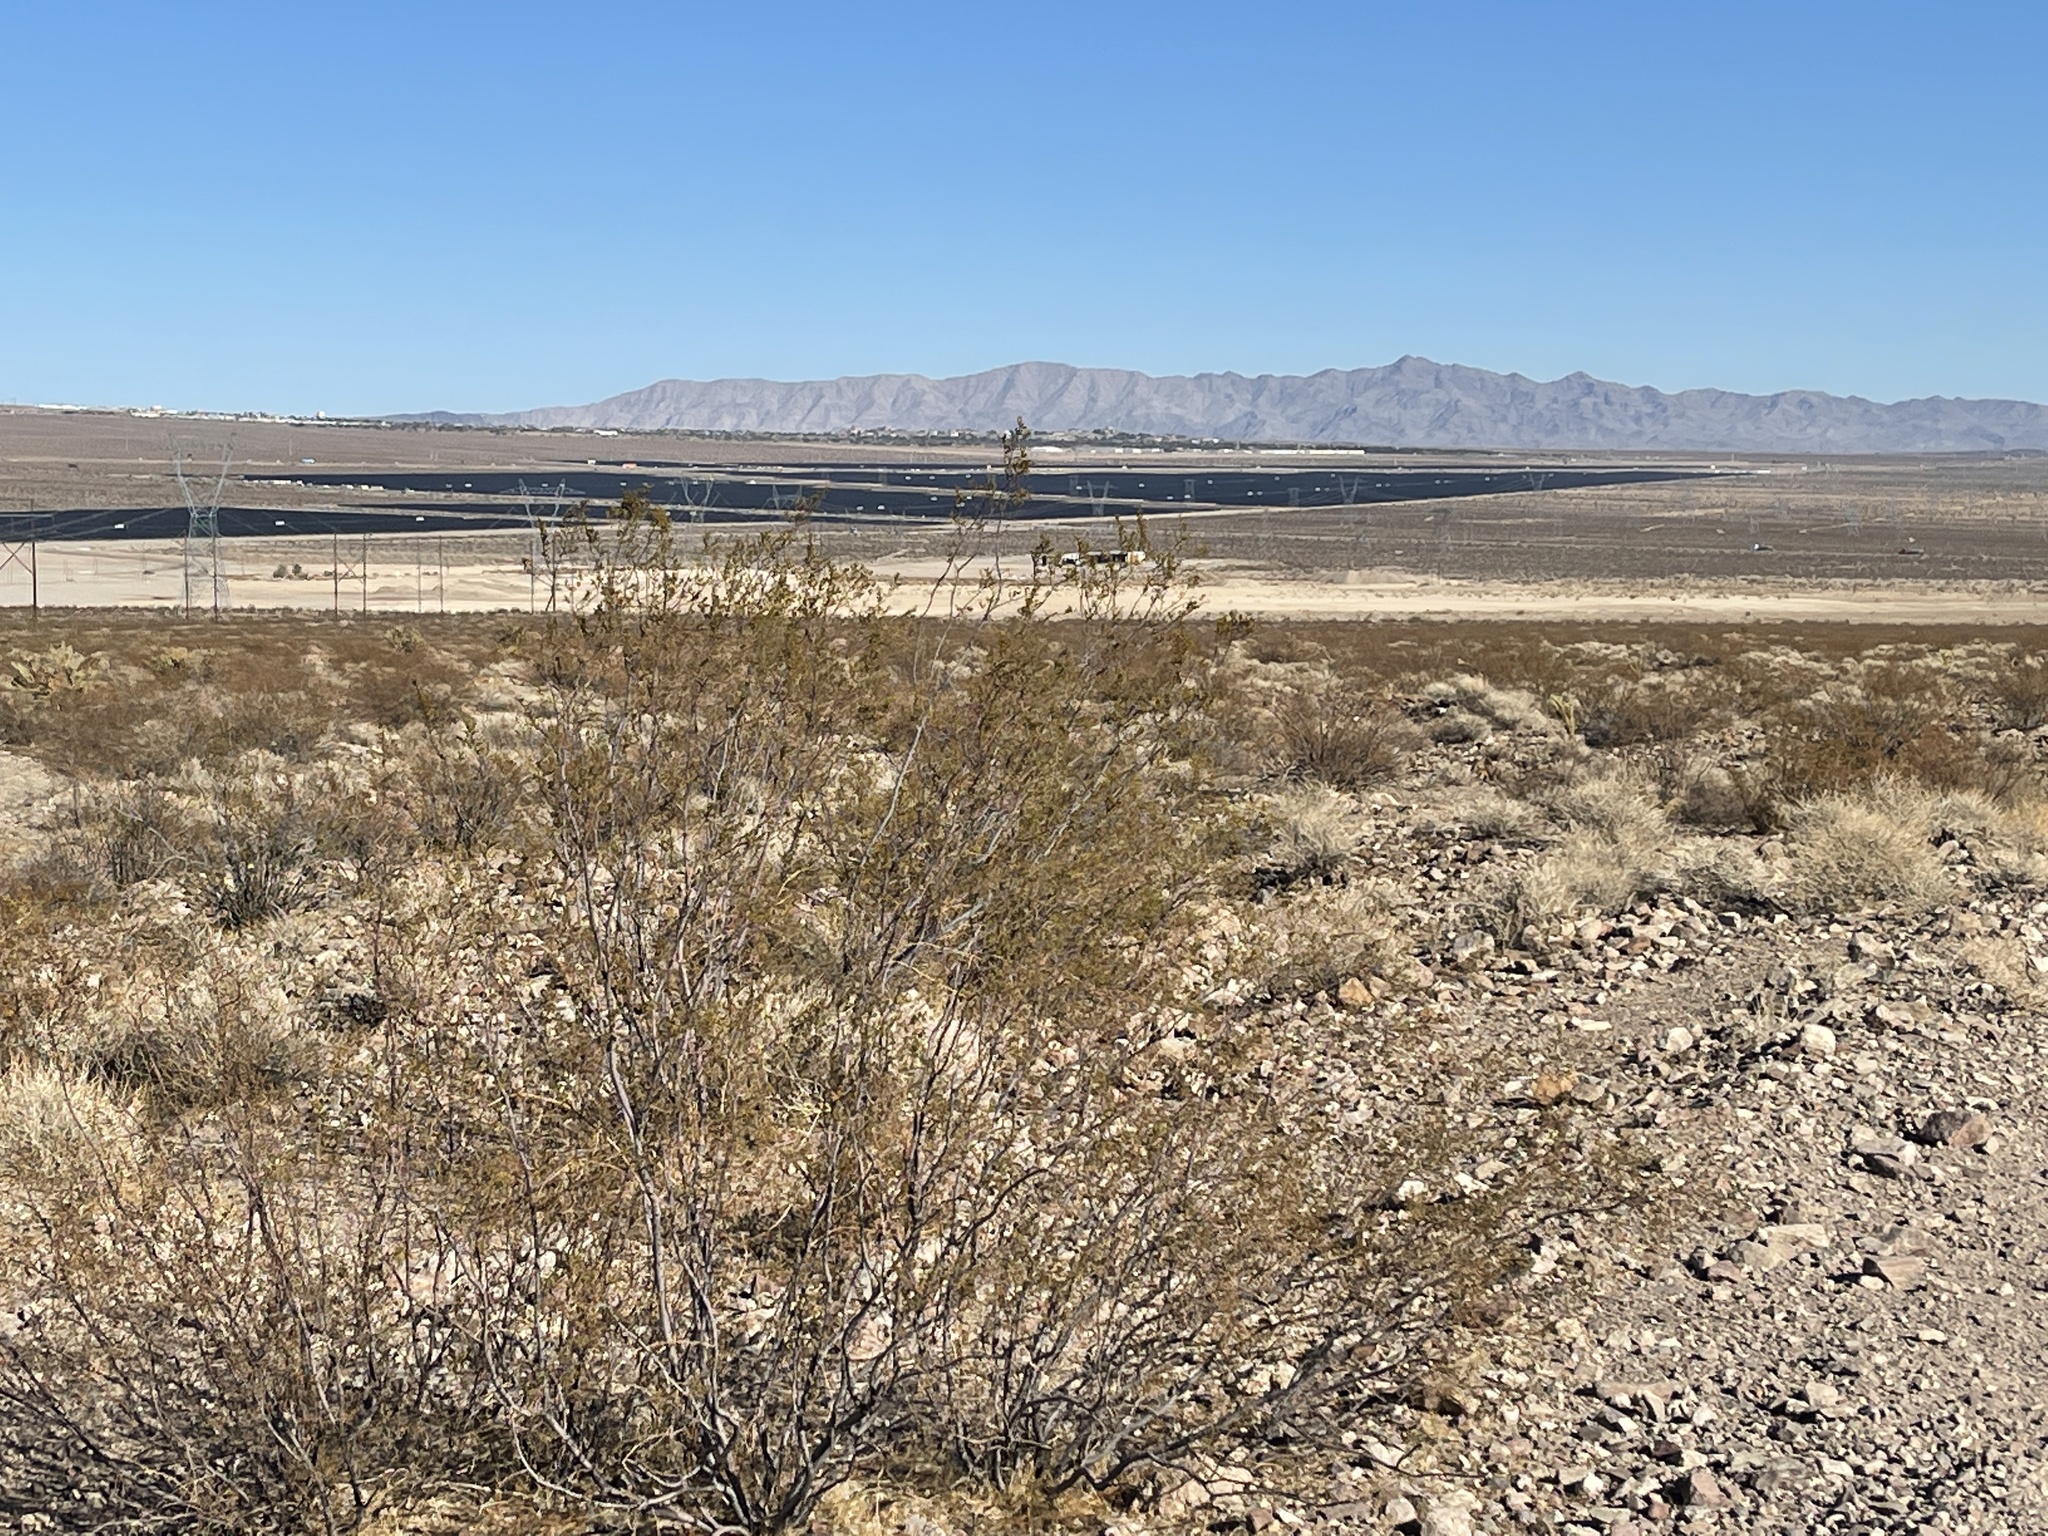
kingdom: Plantae
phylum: Tracheophyta
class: Magnoliopsida
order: Zygophyllales
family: Zygophyllaceae
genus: Larrea
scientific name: Larrea tridentata
